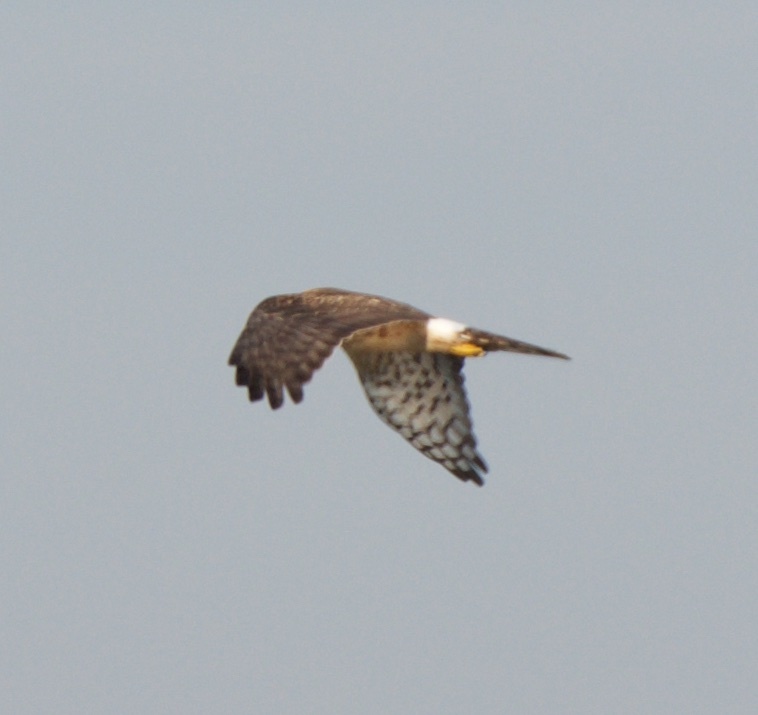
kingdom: Animalia
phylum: Chordata
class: Aves
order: Accipitriformes
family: Accipitridae
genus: Circus
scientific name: Circus cyaneus
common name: Hen harrier
